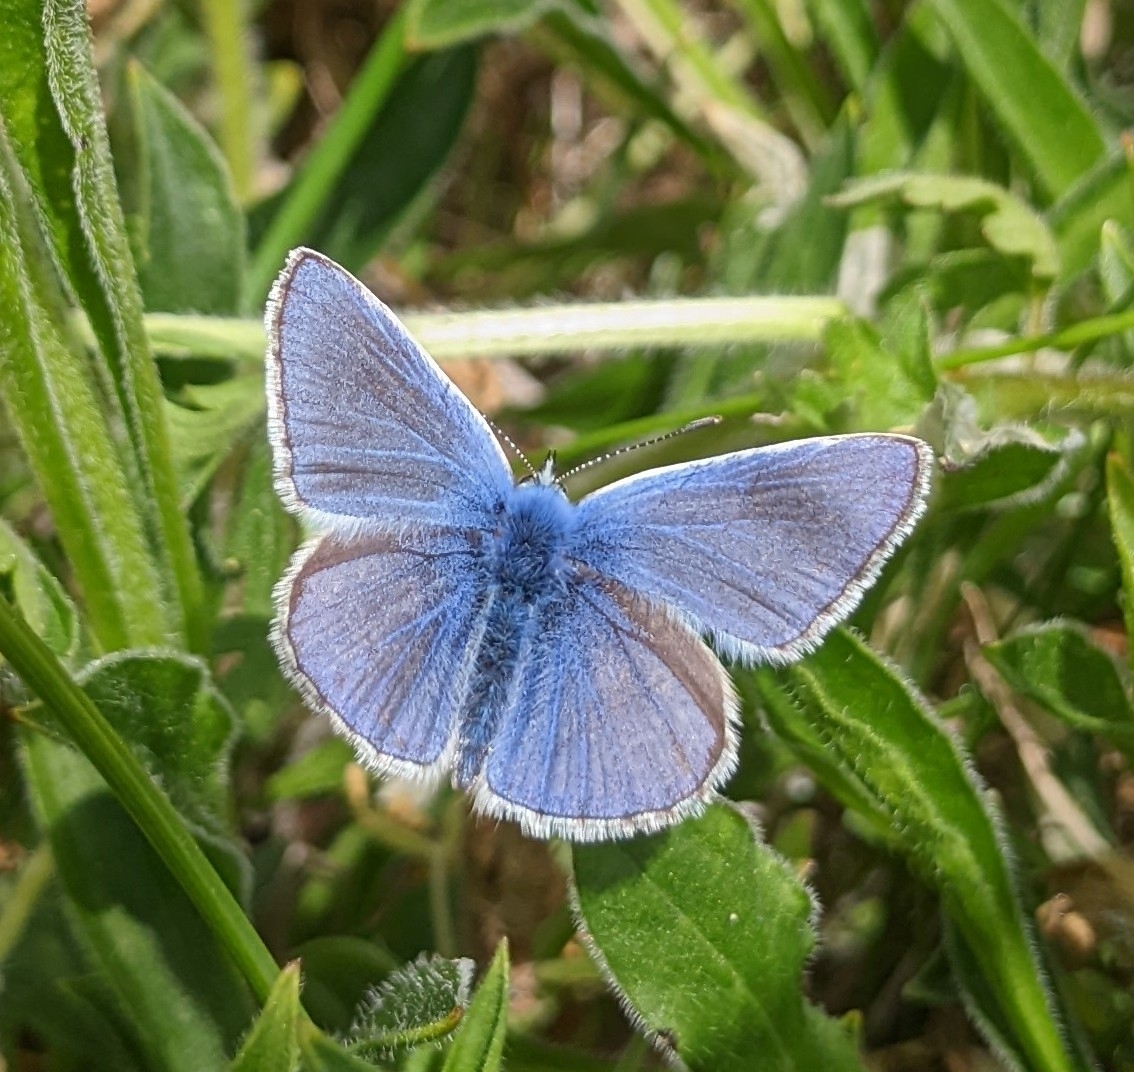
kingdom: Animalia
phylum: Arthropoda
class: Insecta
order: Lepidoptera
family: Lycaenidae
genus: Polyommatus
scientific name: Polyommatus icarus
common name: Common blue
